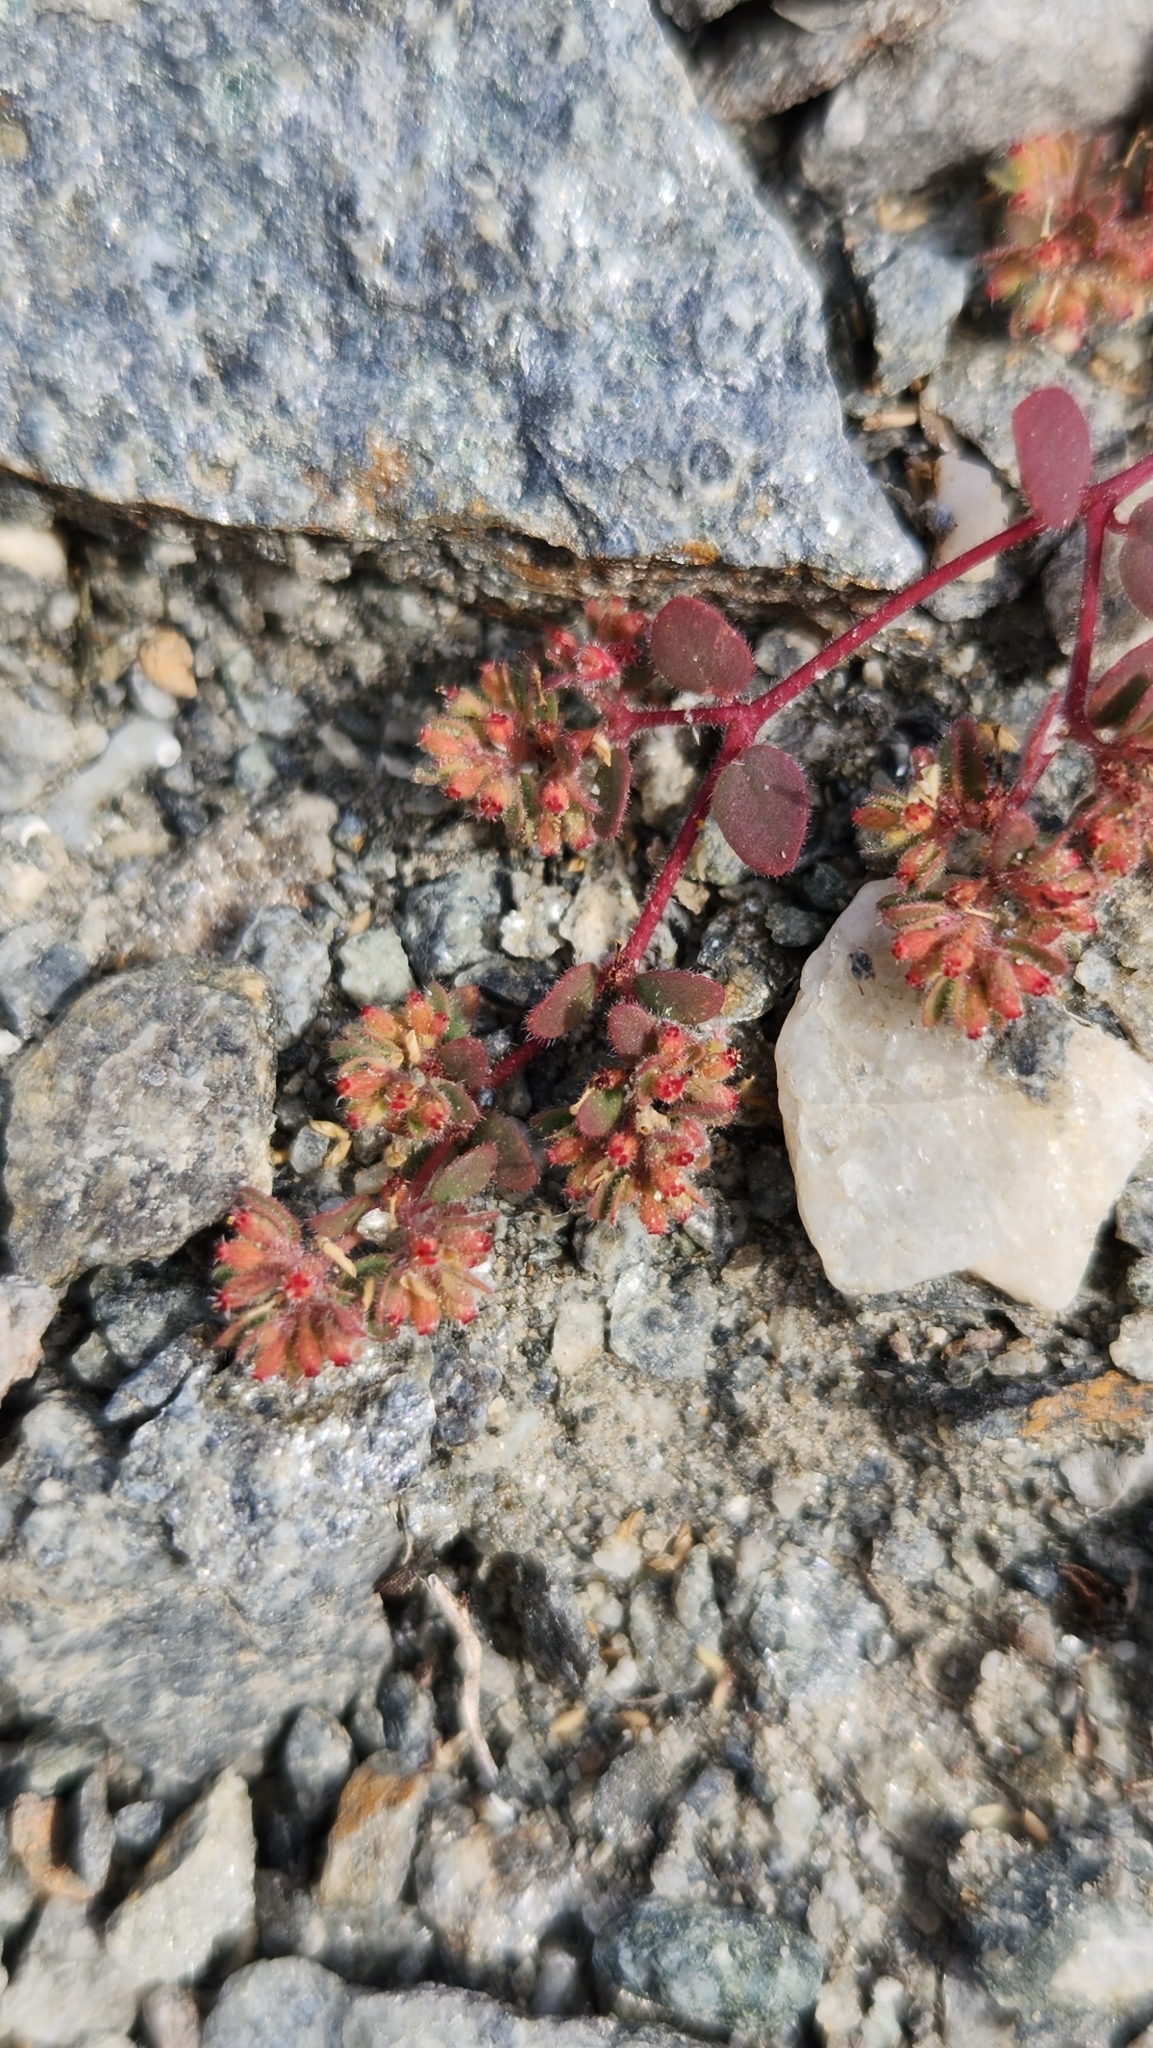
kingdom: Plantae
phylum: Tracheophyta
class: Magnoliopsida
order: Malpighiales
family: Euphorbiaceae
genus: Euphorbia
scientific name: Euphorbia setiloba
